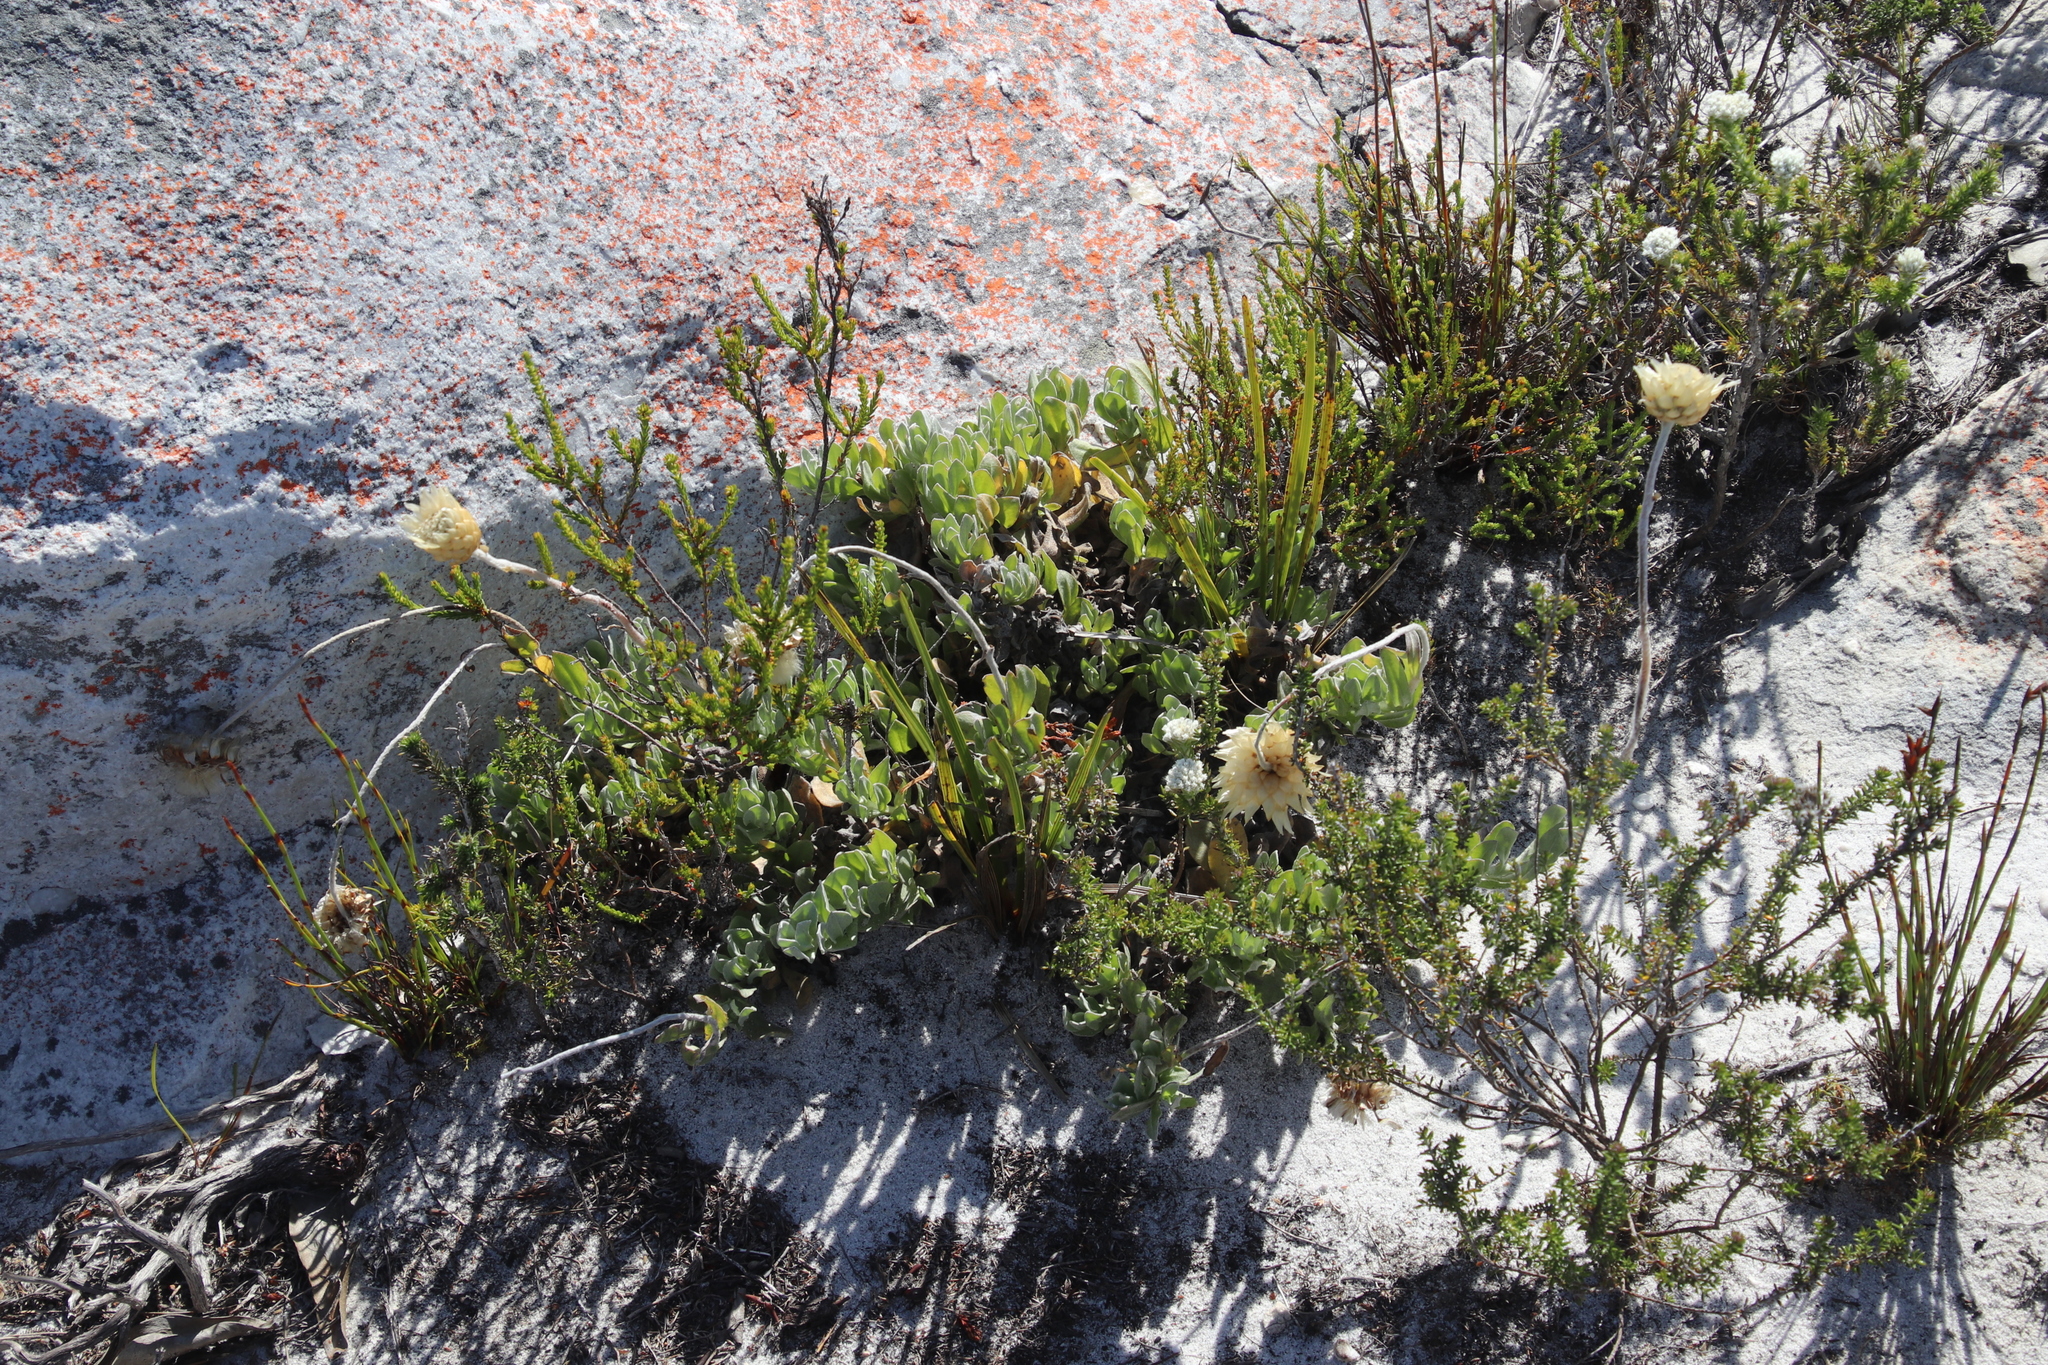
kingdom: Plantae
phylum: Tracheophyta
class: Magnoliopsida
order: Asterales
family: Asteraceae
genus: Syncarpha
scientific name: Syncarpha speciosissima
